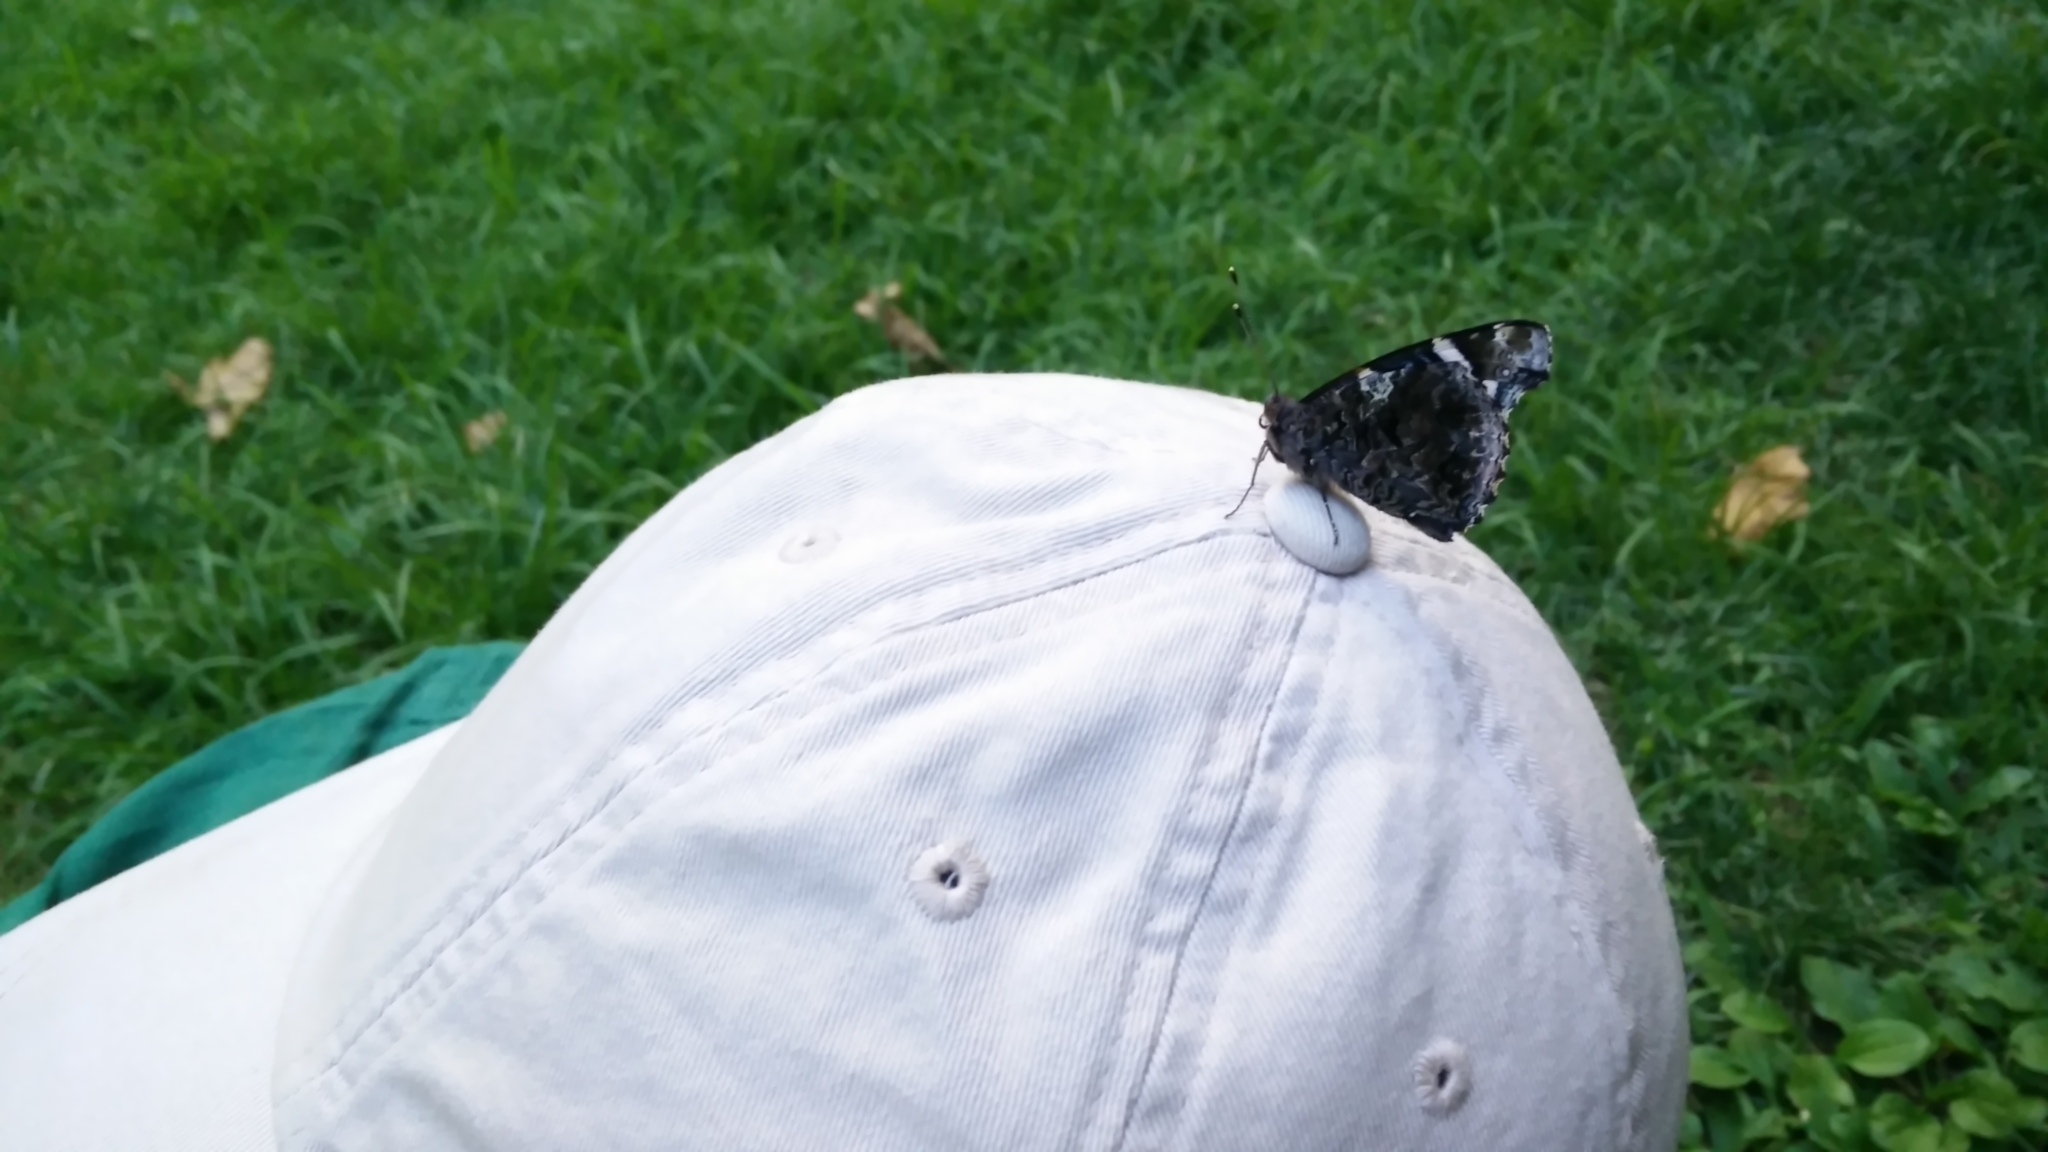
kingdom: Animalia
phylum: Arthropoda
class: Insecta
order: Lepidoptera
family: Nymphalidae
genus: Vanessa
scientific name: Vanessa atalanta
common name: Red admiral
